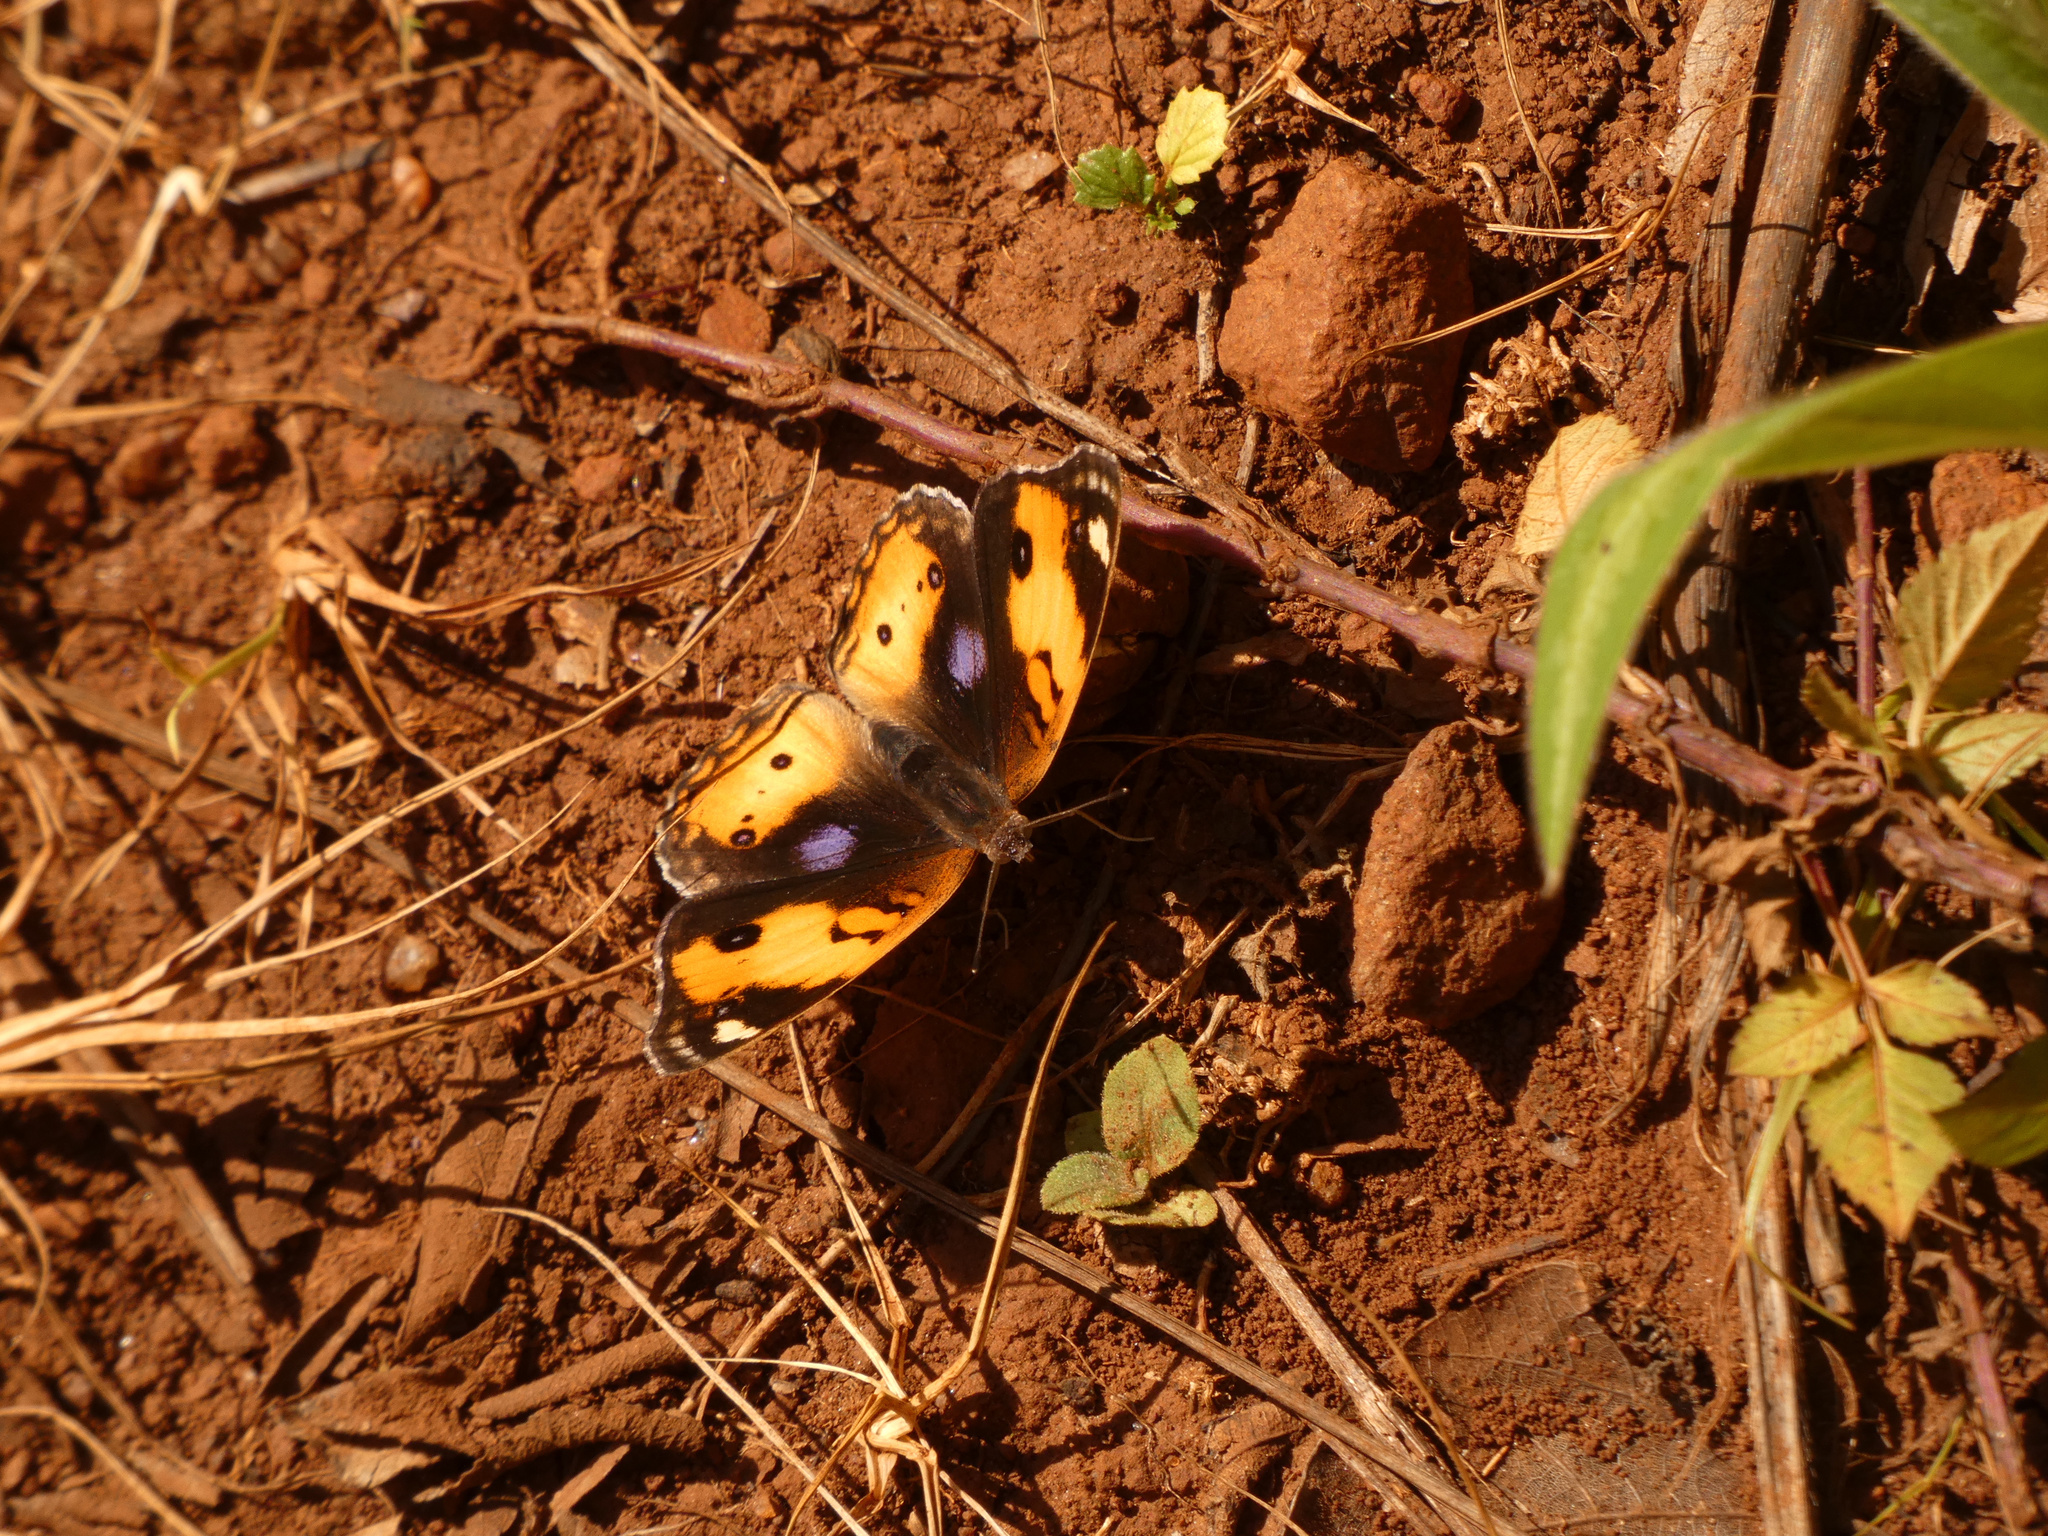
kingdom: Animalia
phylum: Arthropoda
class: Insecta
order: Lepidoptera
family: Nymphalidae
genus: Junonia
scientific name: Junonia hierta
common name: Yellow pansy
